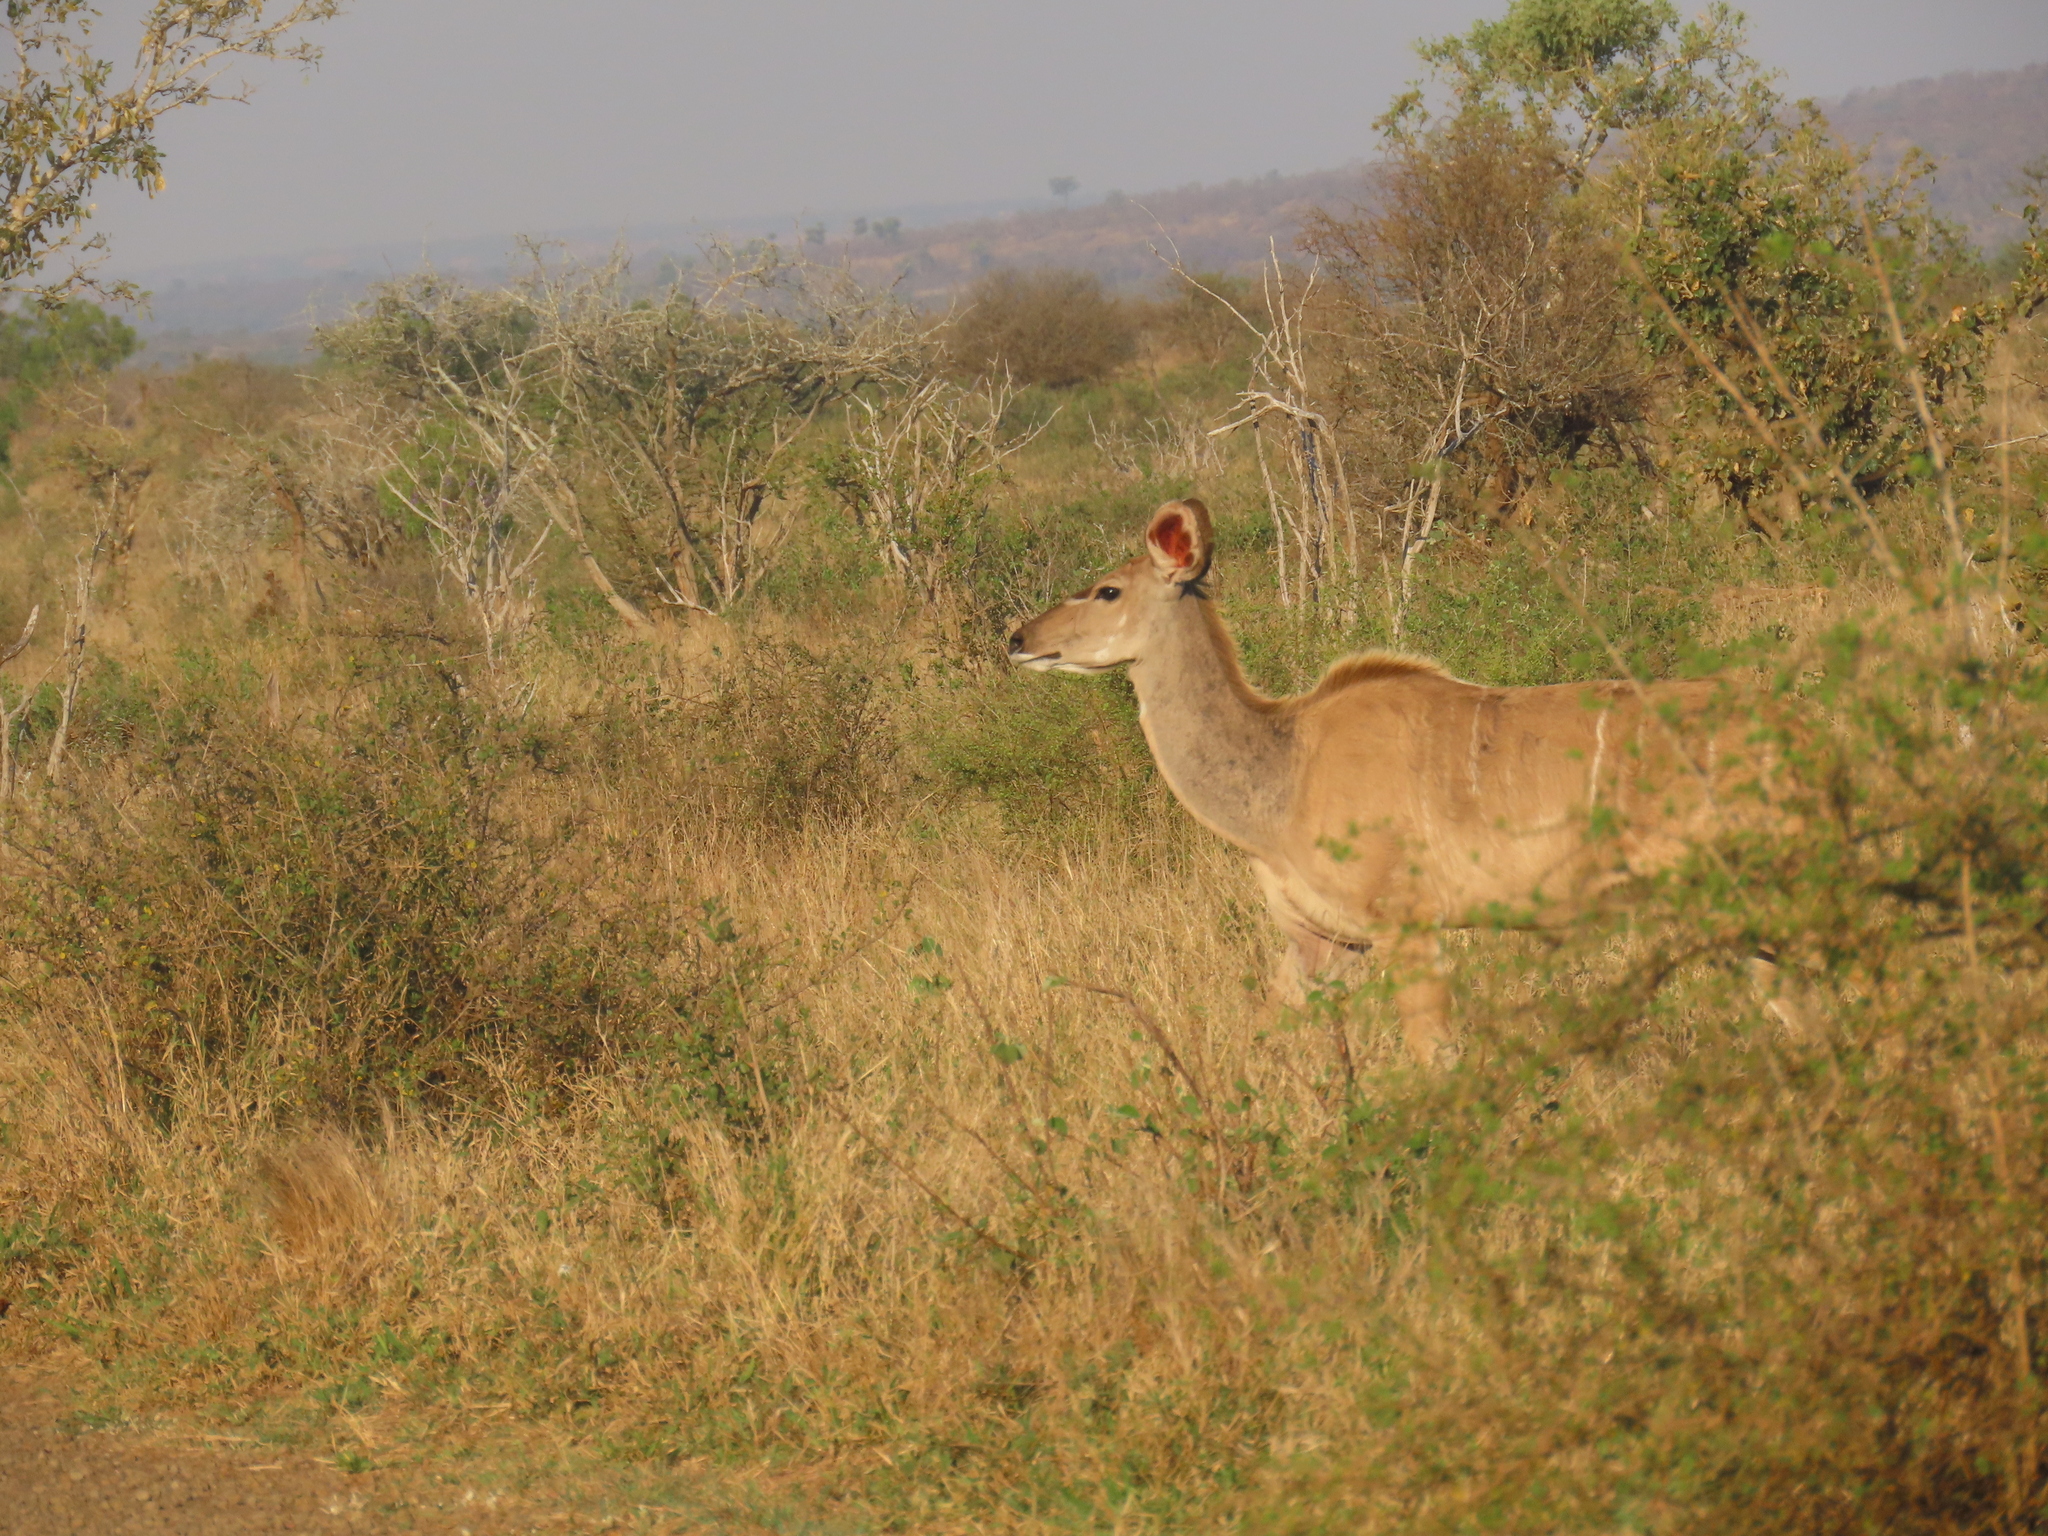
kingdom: Animalia
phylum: Chordata
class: Mammalia
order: Artiodactyla
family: Bovidae
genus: Tragelaphus
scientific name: Tragelaphus strepsiceros
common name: Greater kudu
